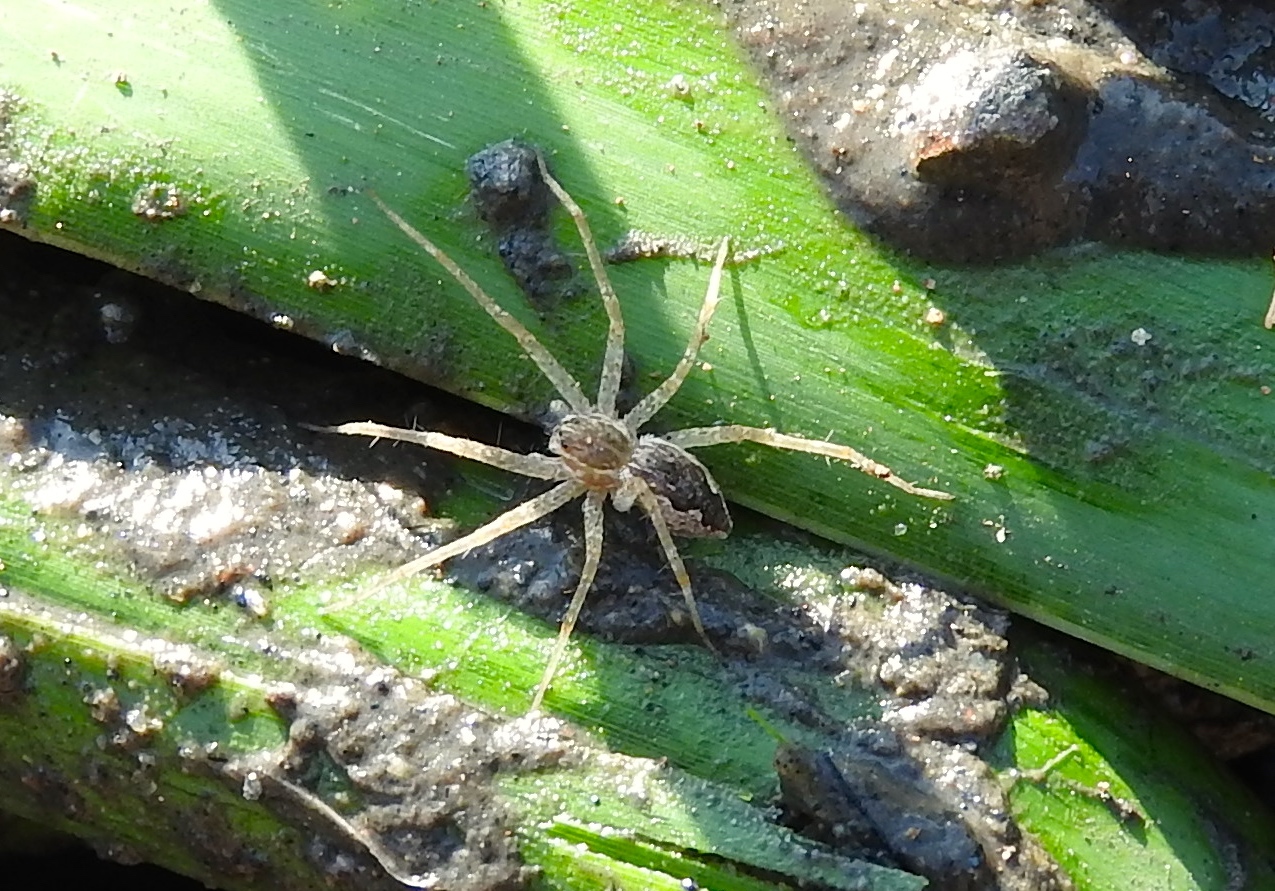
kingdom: Animalia
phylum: Arthropoda
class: Arachnida
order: Araneae
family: Pisauridae
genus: Tinus
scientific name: Tinus
